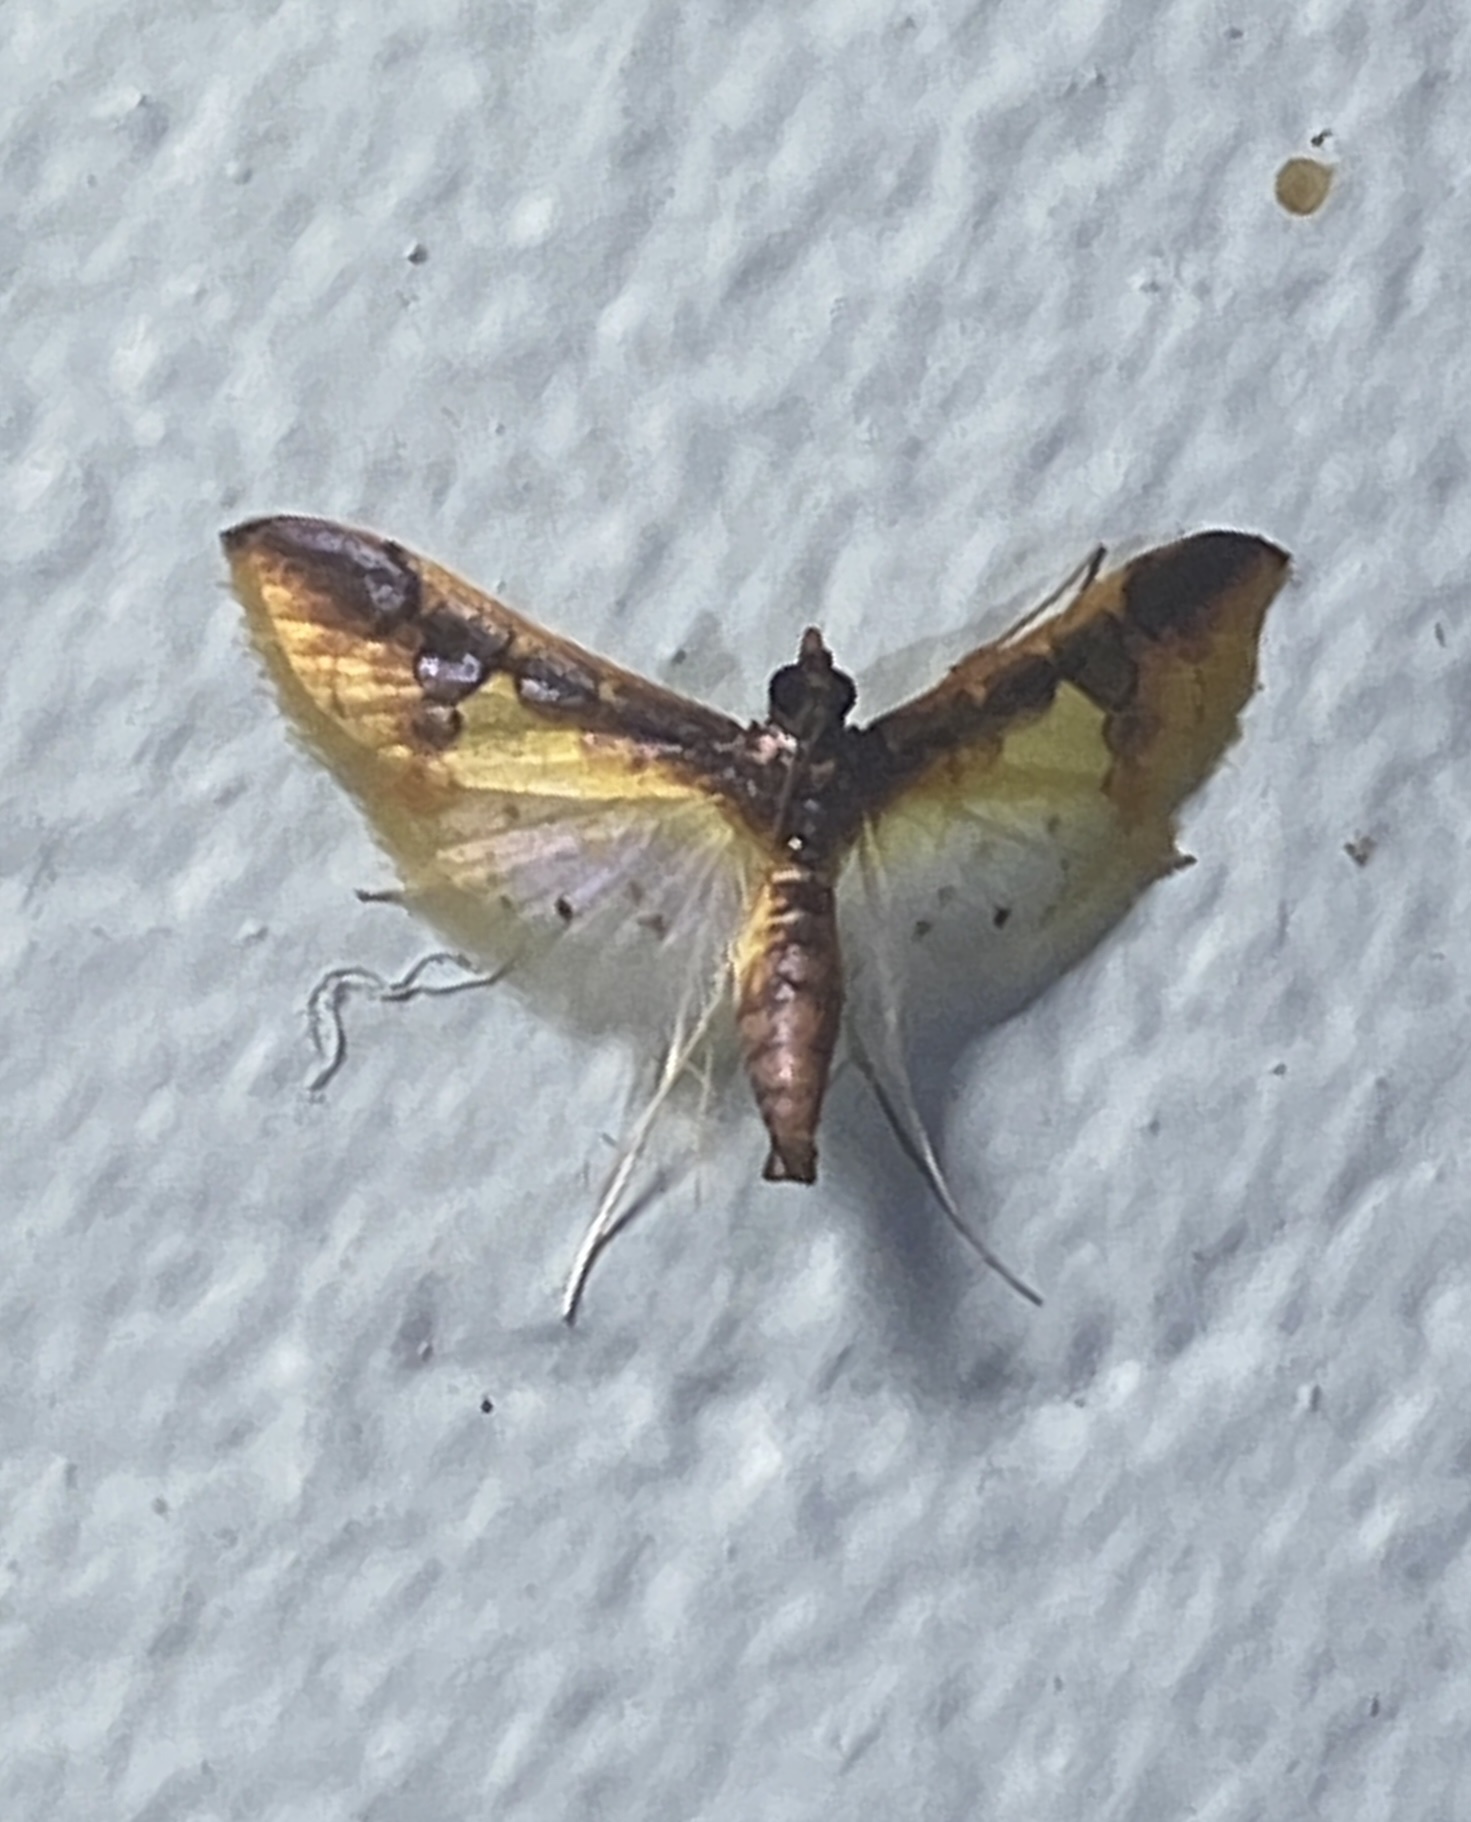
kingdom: Animalia
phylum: Arthropoda
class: Insecta
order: Lepidoptera
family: Crambidae
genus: Analyta
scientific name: Analyta semantris
